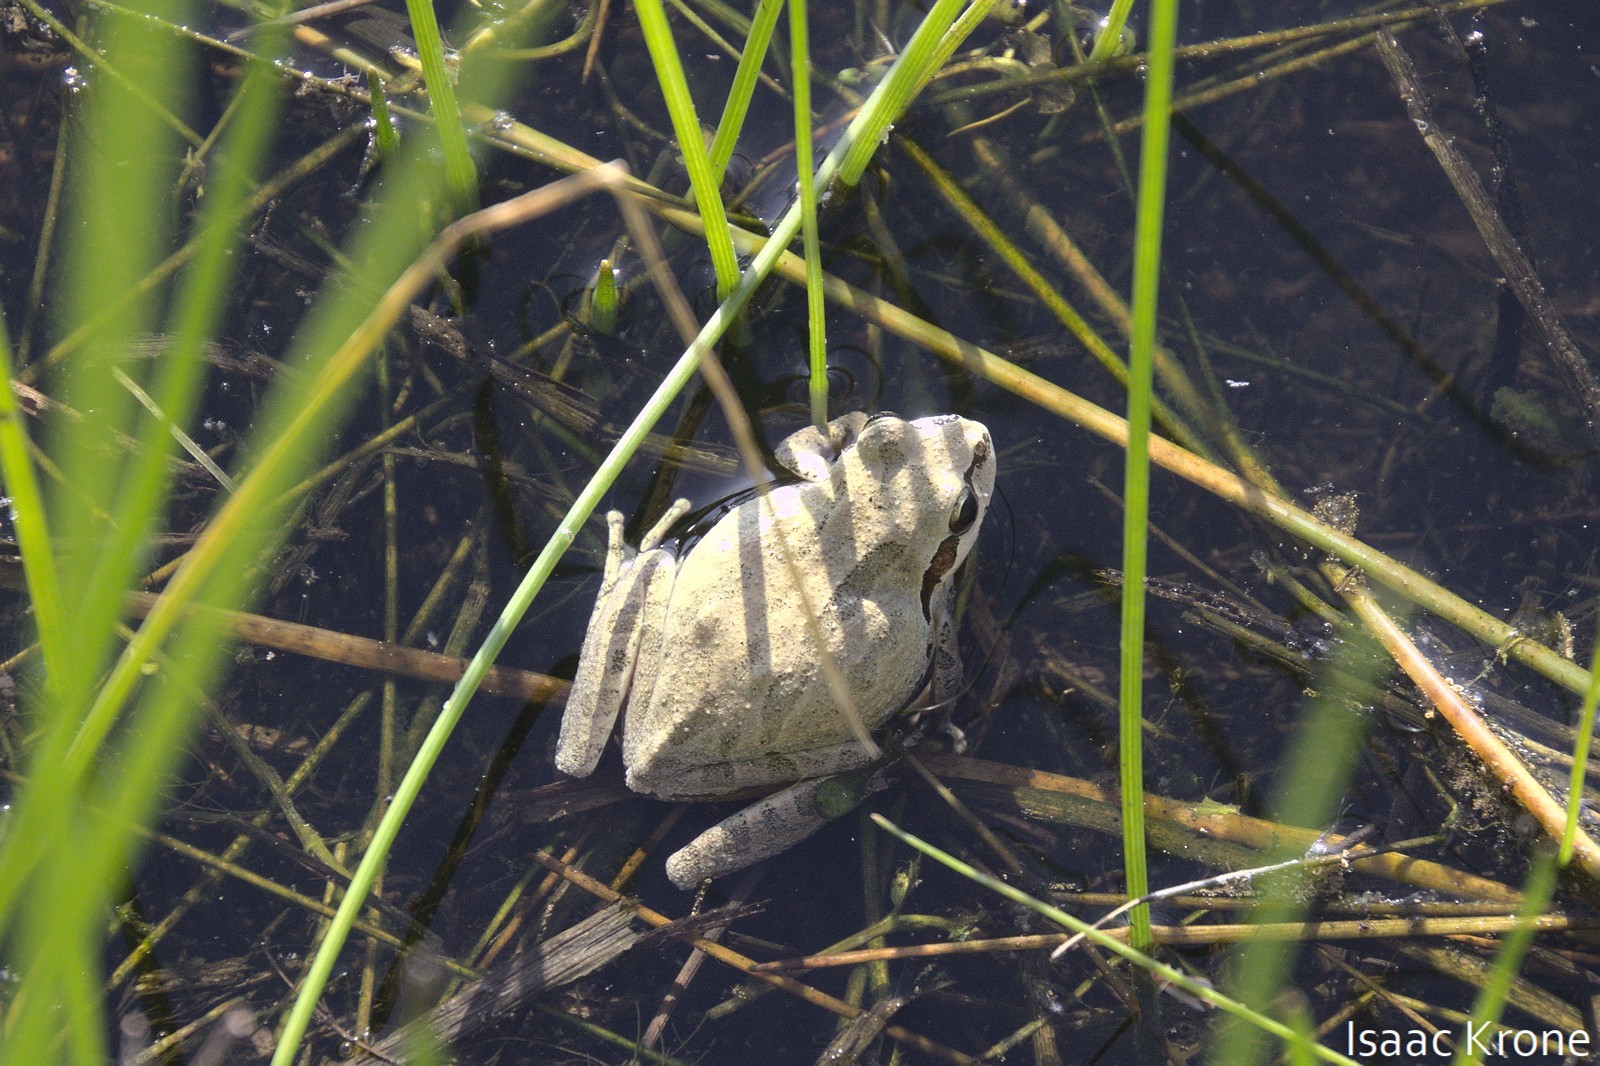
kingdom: Animalia
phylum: Chordata
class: Amphibia
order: Anura
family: Hylidae
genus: Pseudacris
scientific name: Pseudacris regilla
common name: Pacific chorus frog
